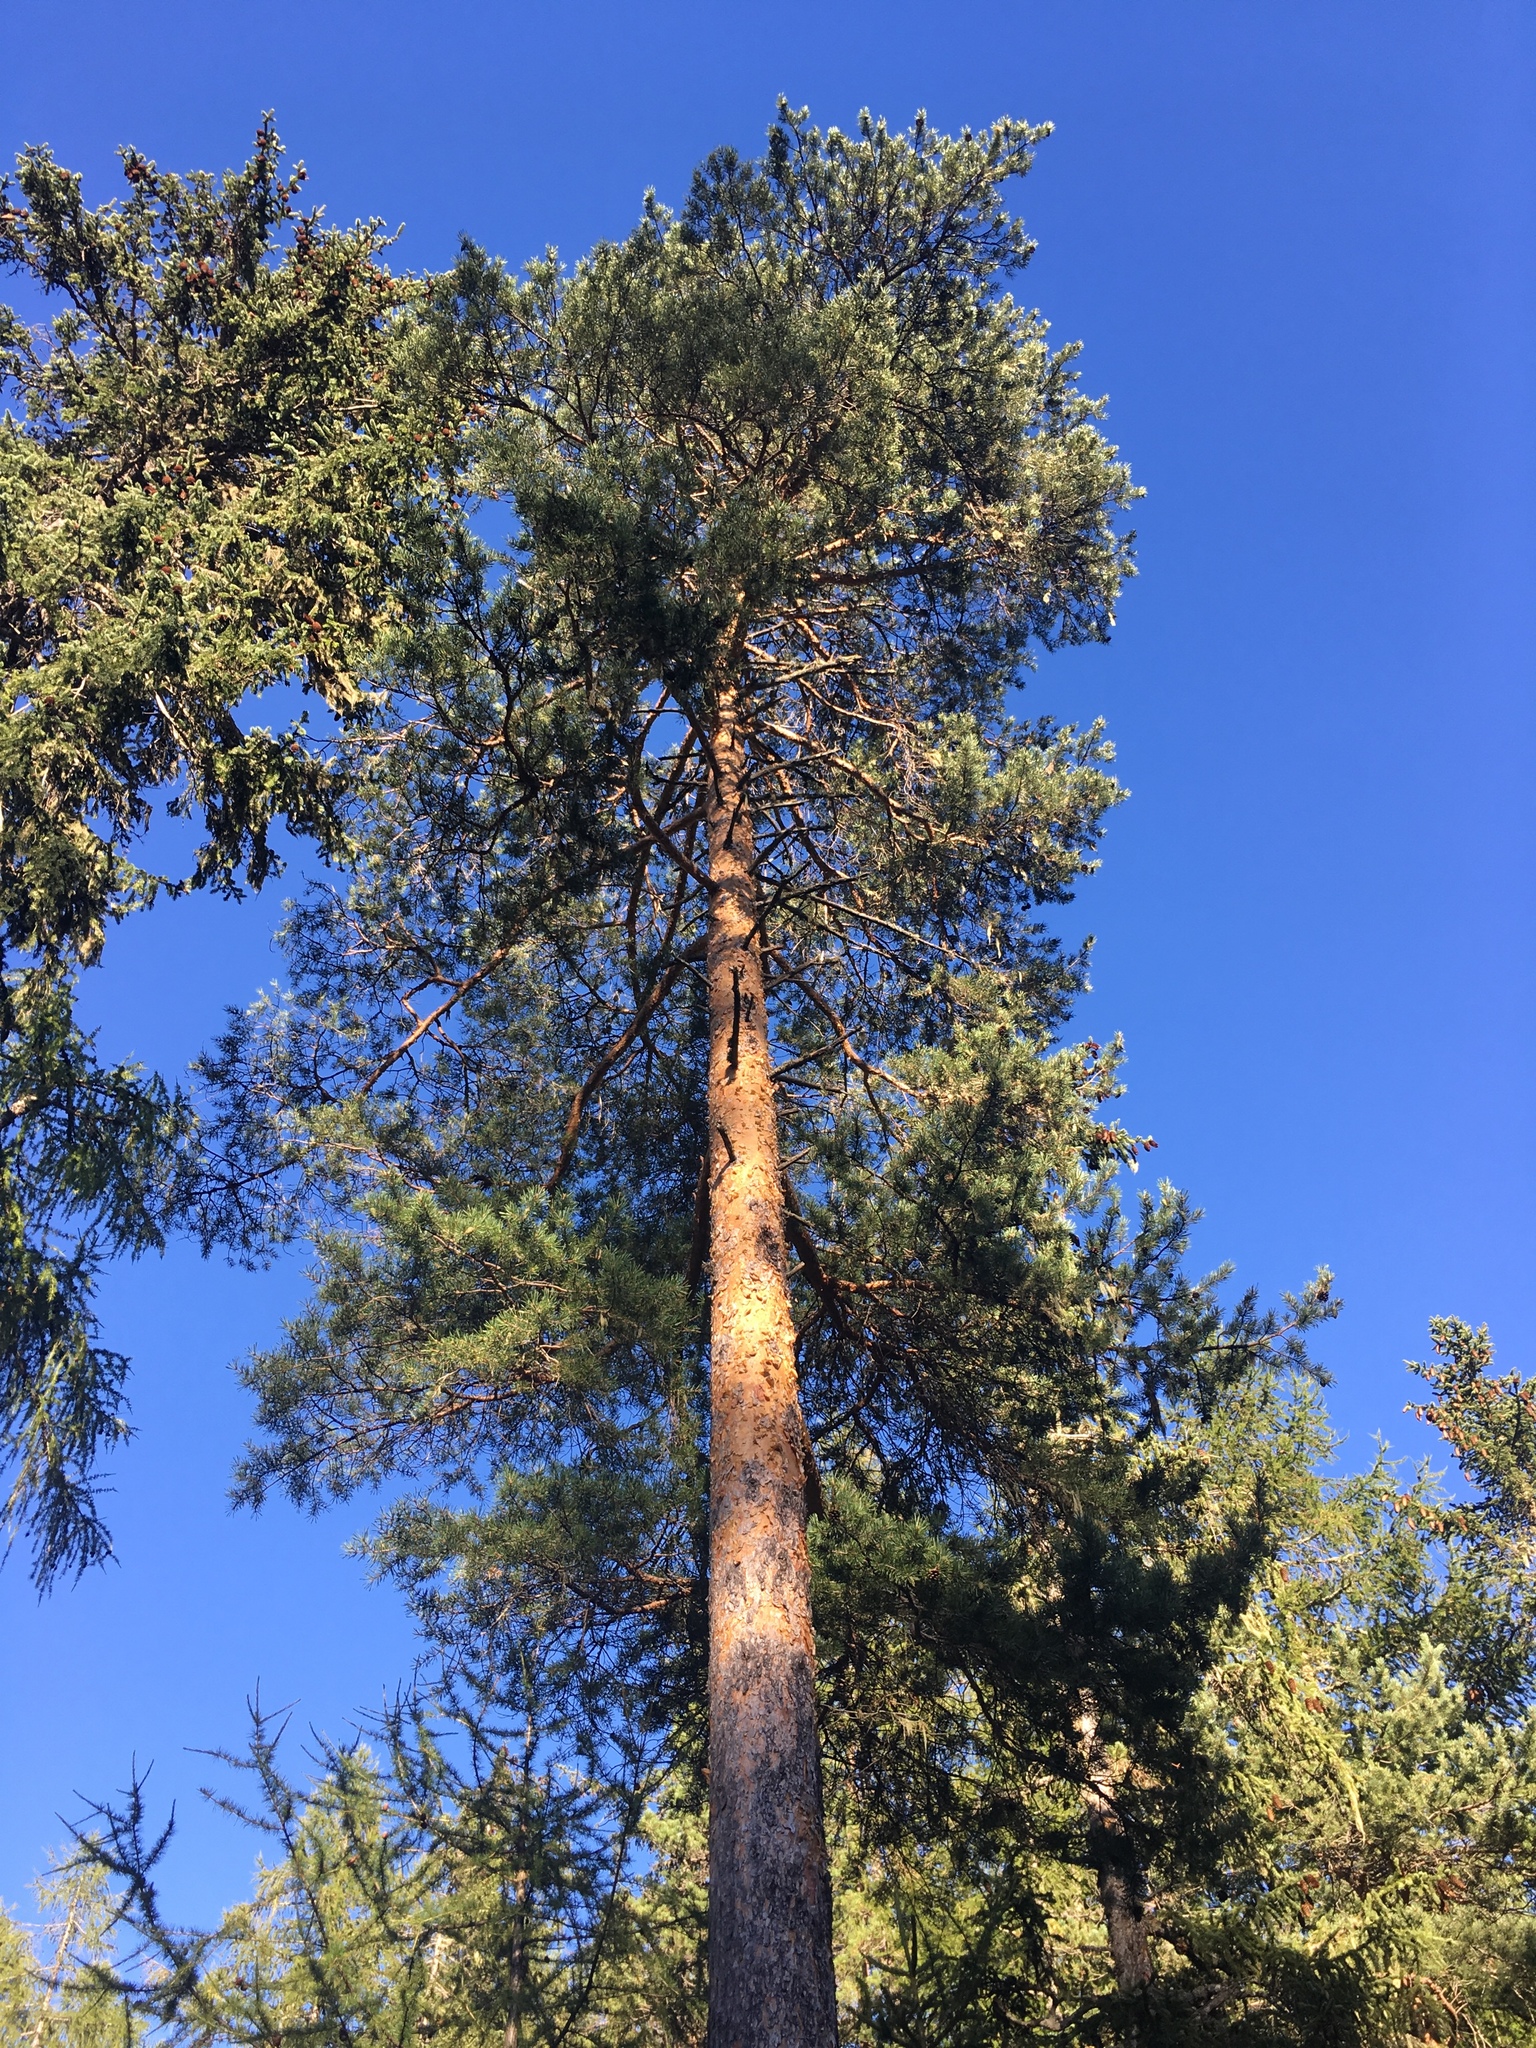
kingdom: Plantae
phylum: Tracheophyta
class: Pinopsida
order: Pinales
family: Pinaceae
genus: Pinus
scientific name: Pinus sylvestris
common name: Scots pine
